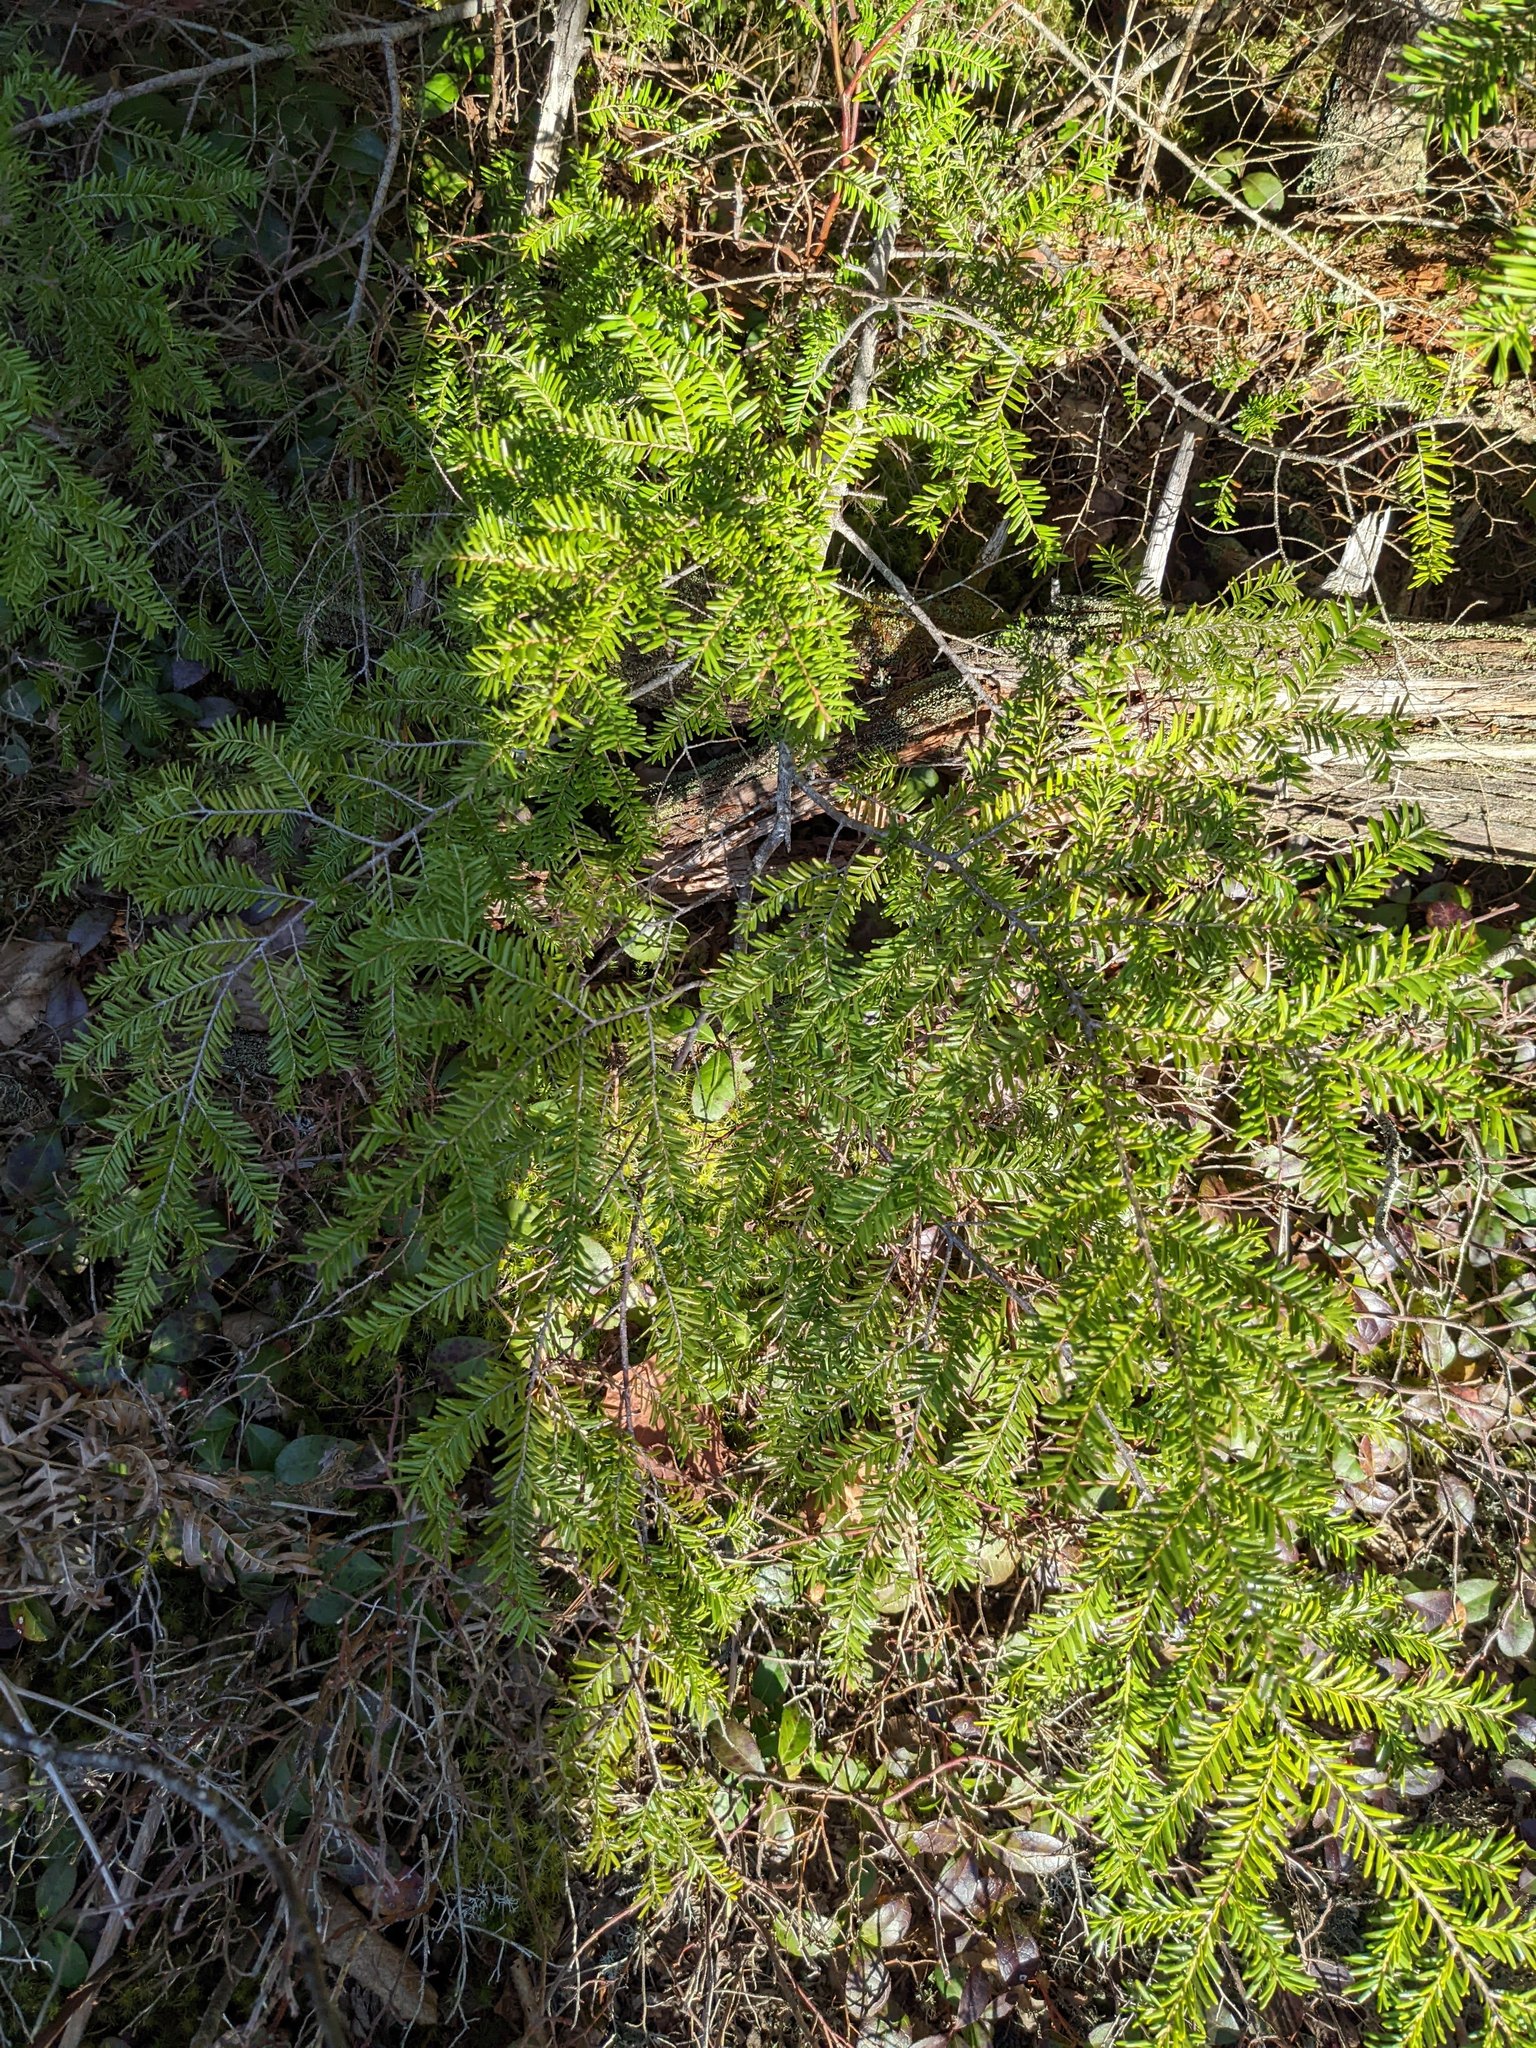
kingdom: Plantae
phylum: Tracheophyta
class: Pinopsida
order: Pinales
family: Pinaceae
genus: Tsuga
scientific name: Tsuga canadensis
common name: Eastern hemlock
